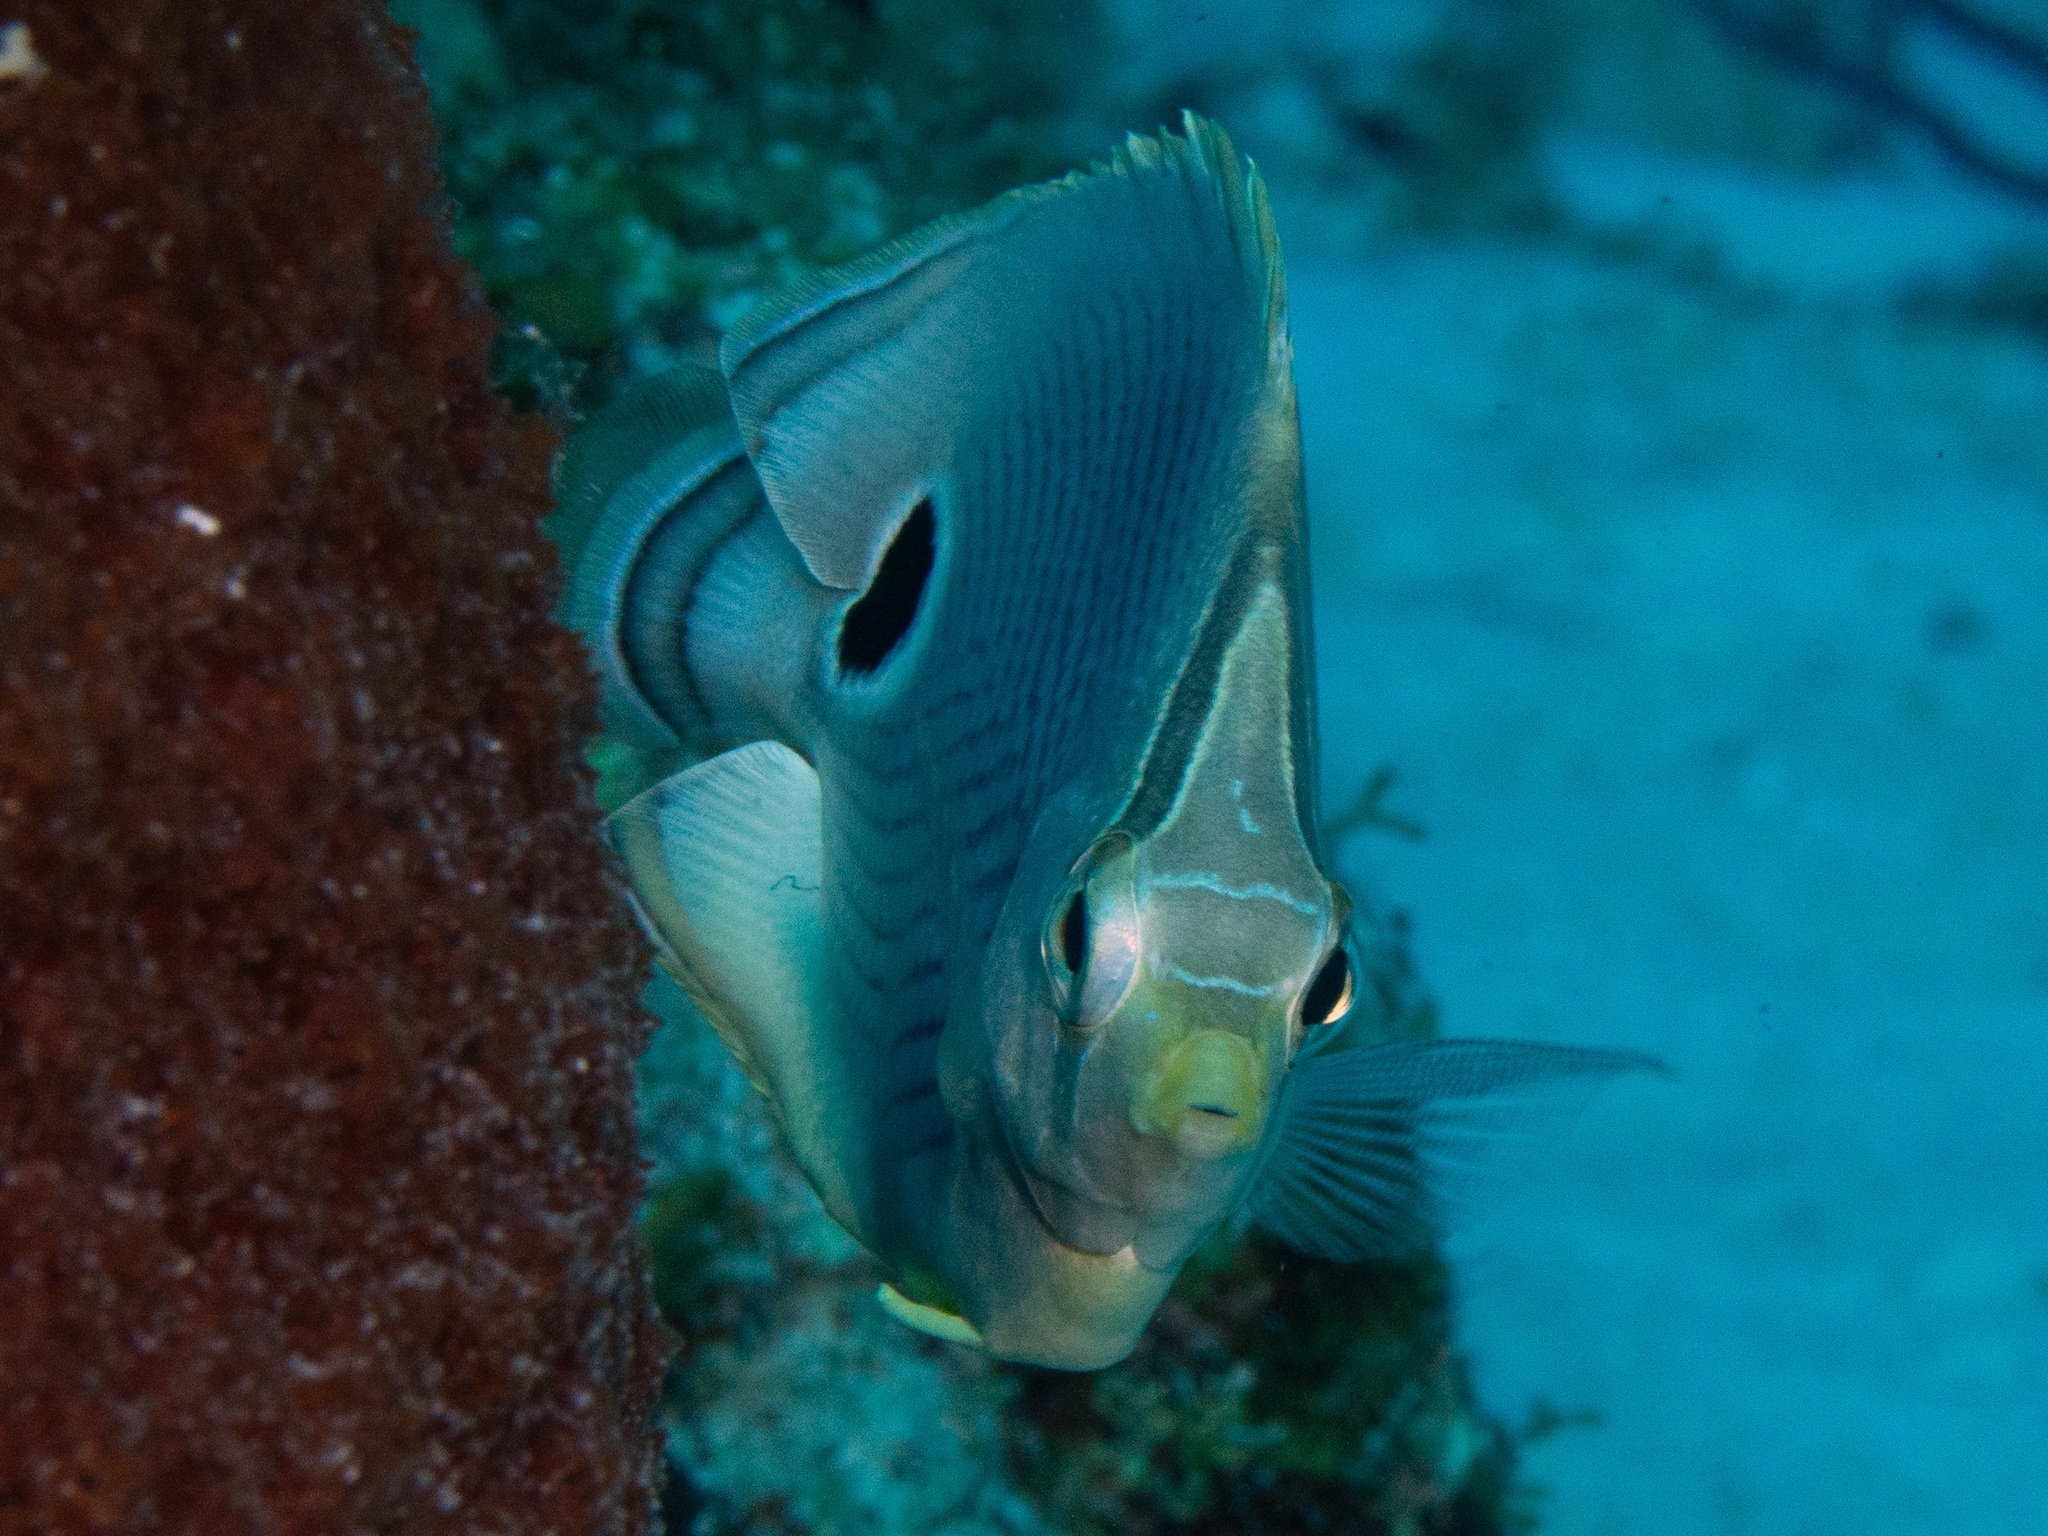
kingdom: Animalia
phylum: Chordata
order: Perciformes
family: Chaetodontidae
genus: Chaetodon
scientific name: Chaetodon capistratus
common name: Kete
